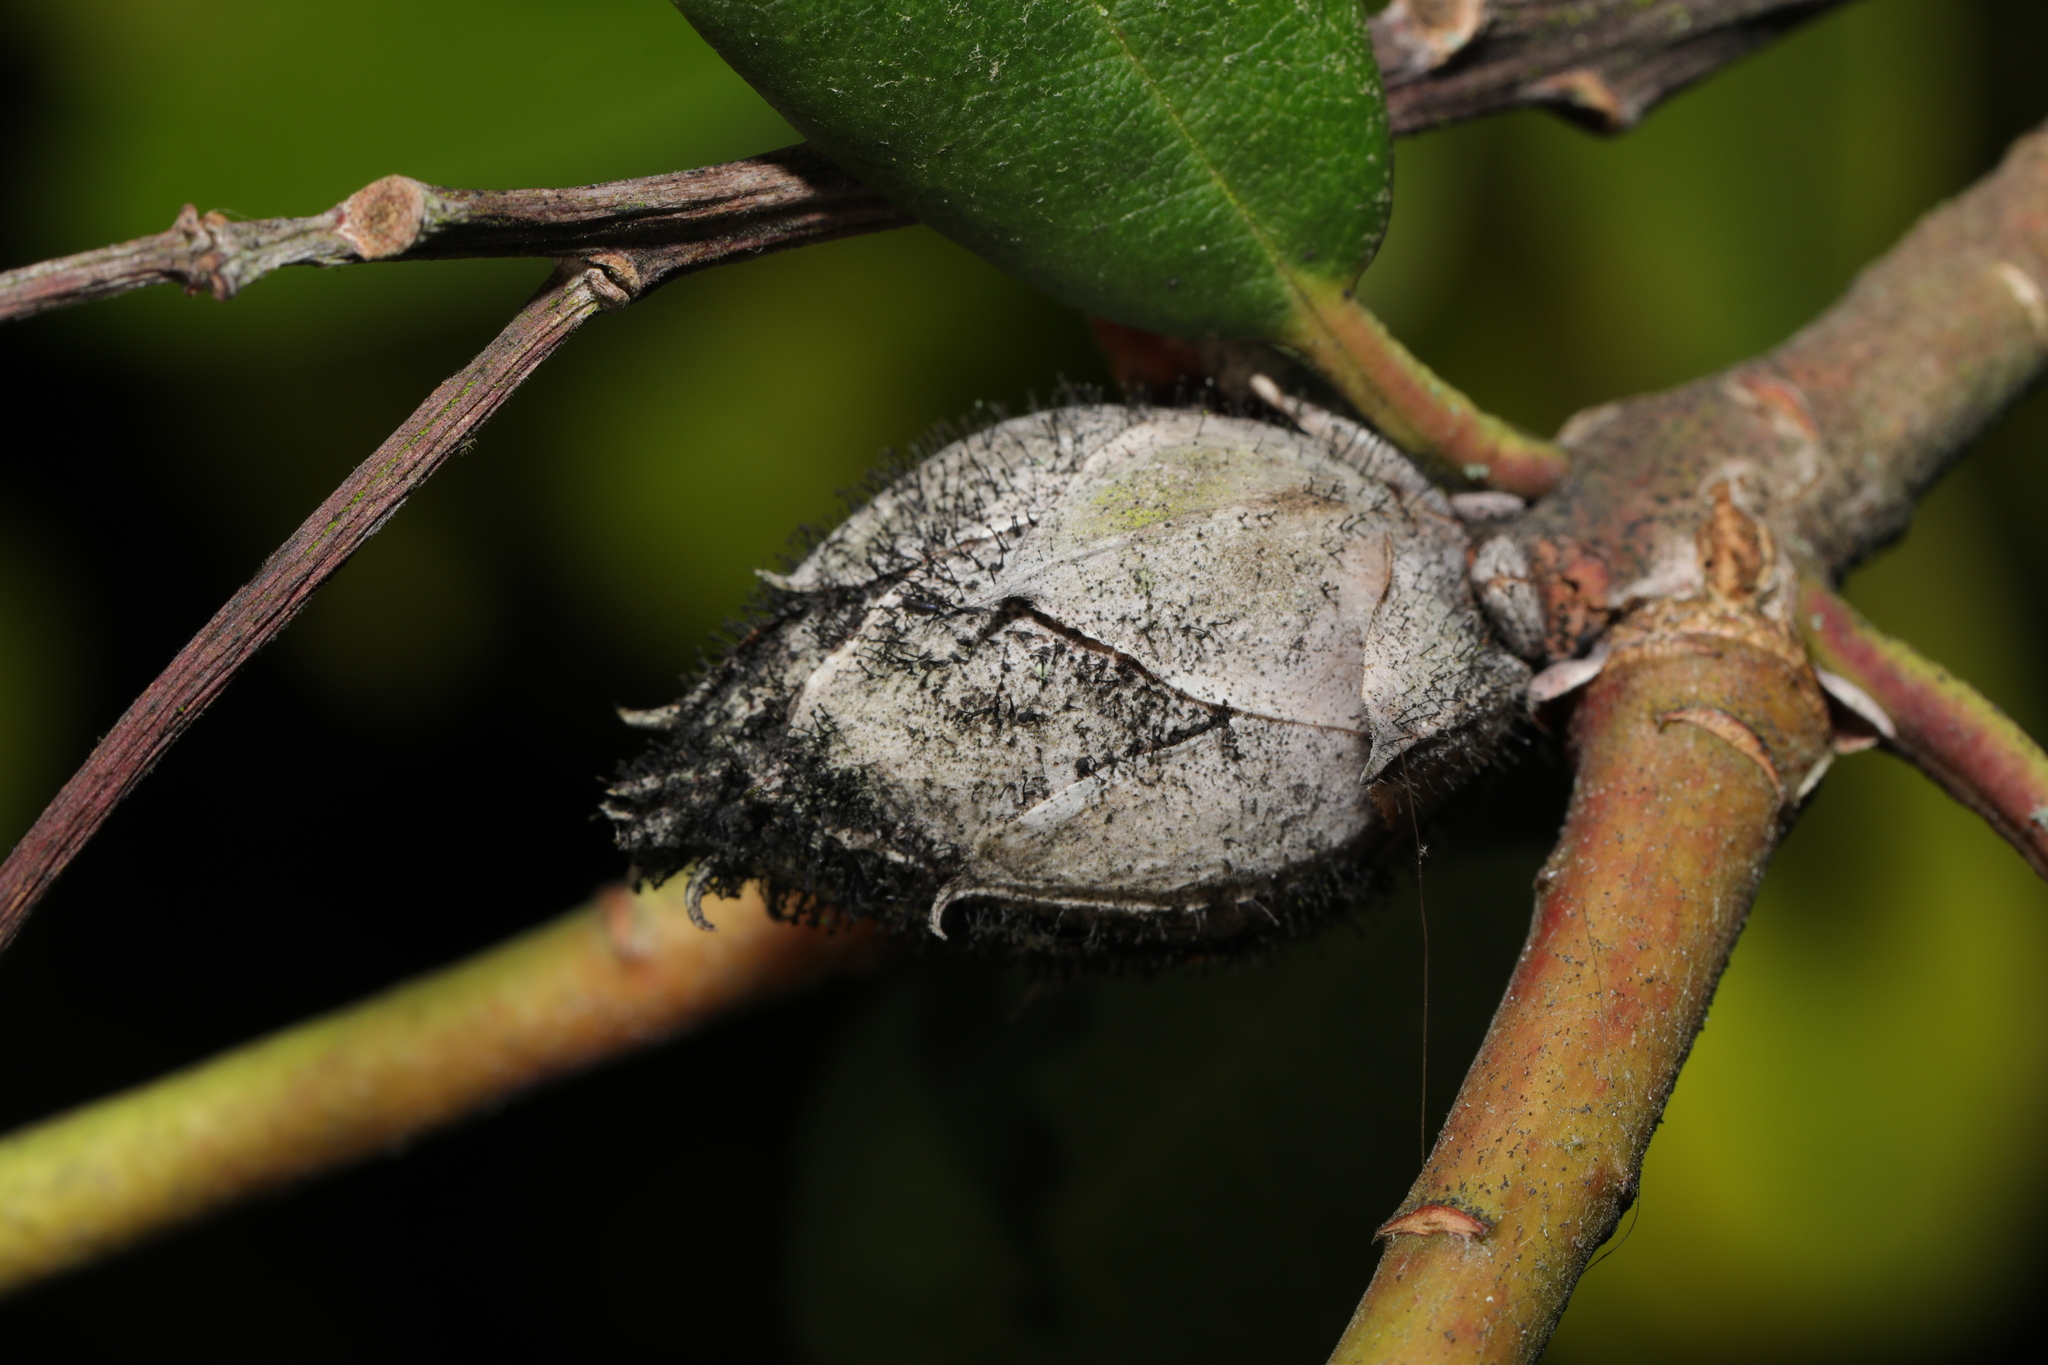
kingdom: Fungi
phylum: Ascomycota
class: Dothideomycetes
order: Pleosporales
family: Melanommataceae
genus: Seifertia
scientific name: Seifertia azaleae
